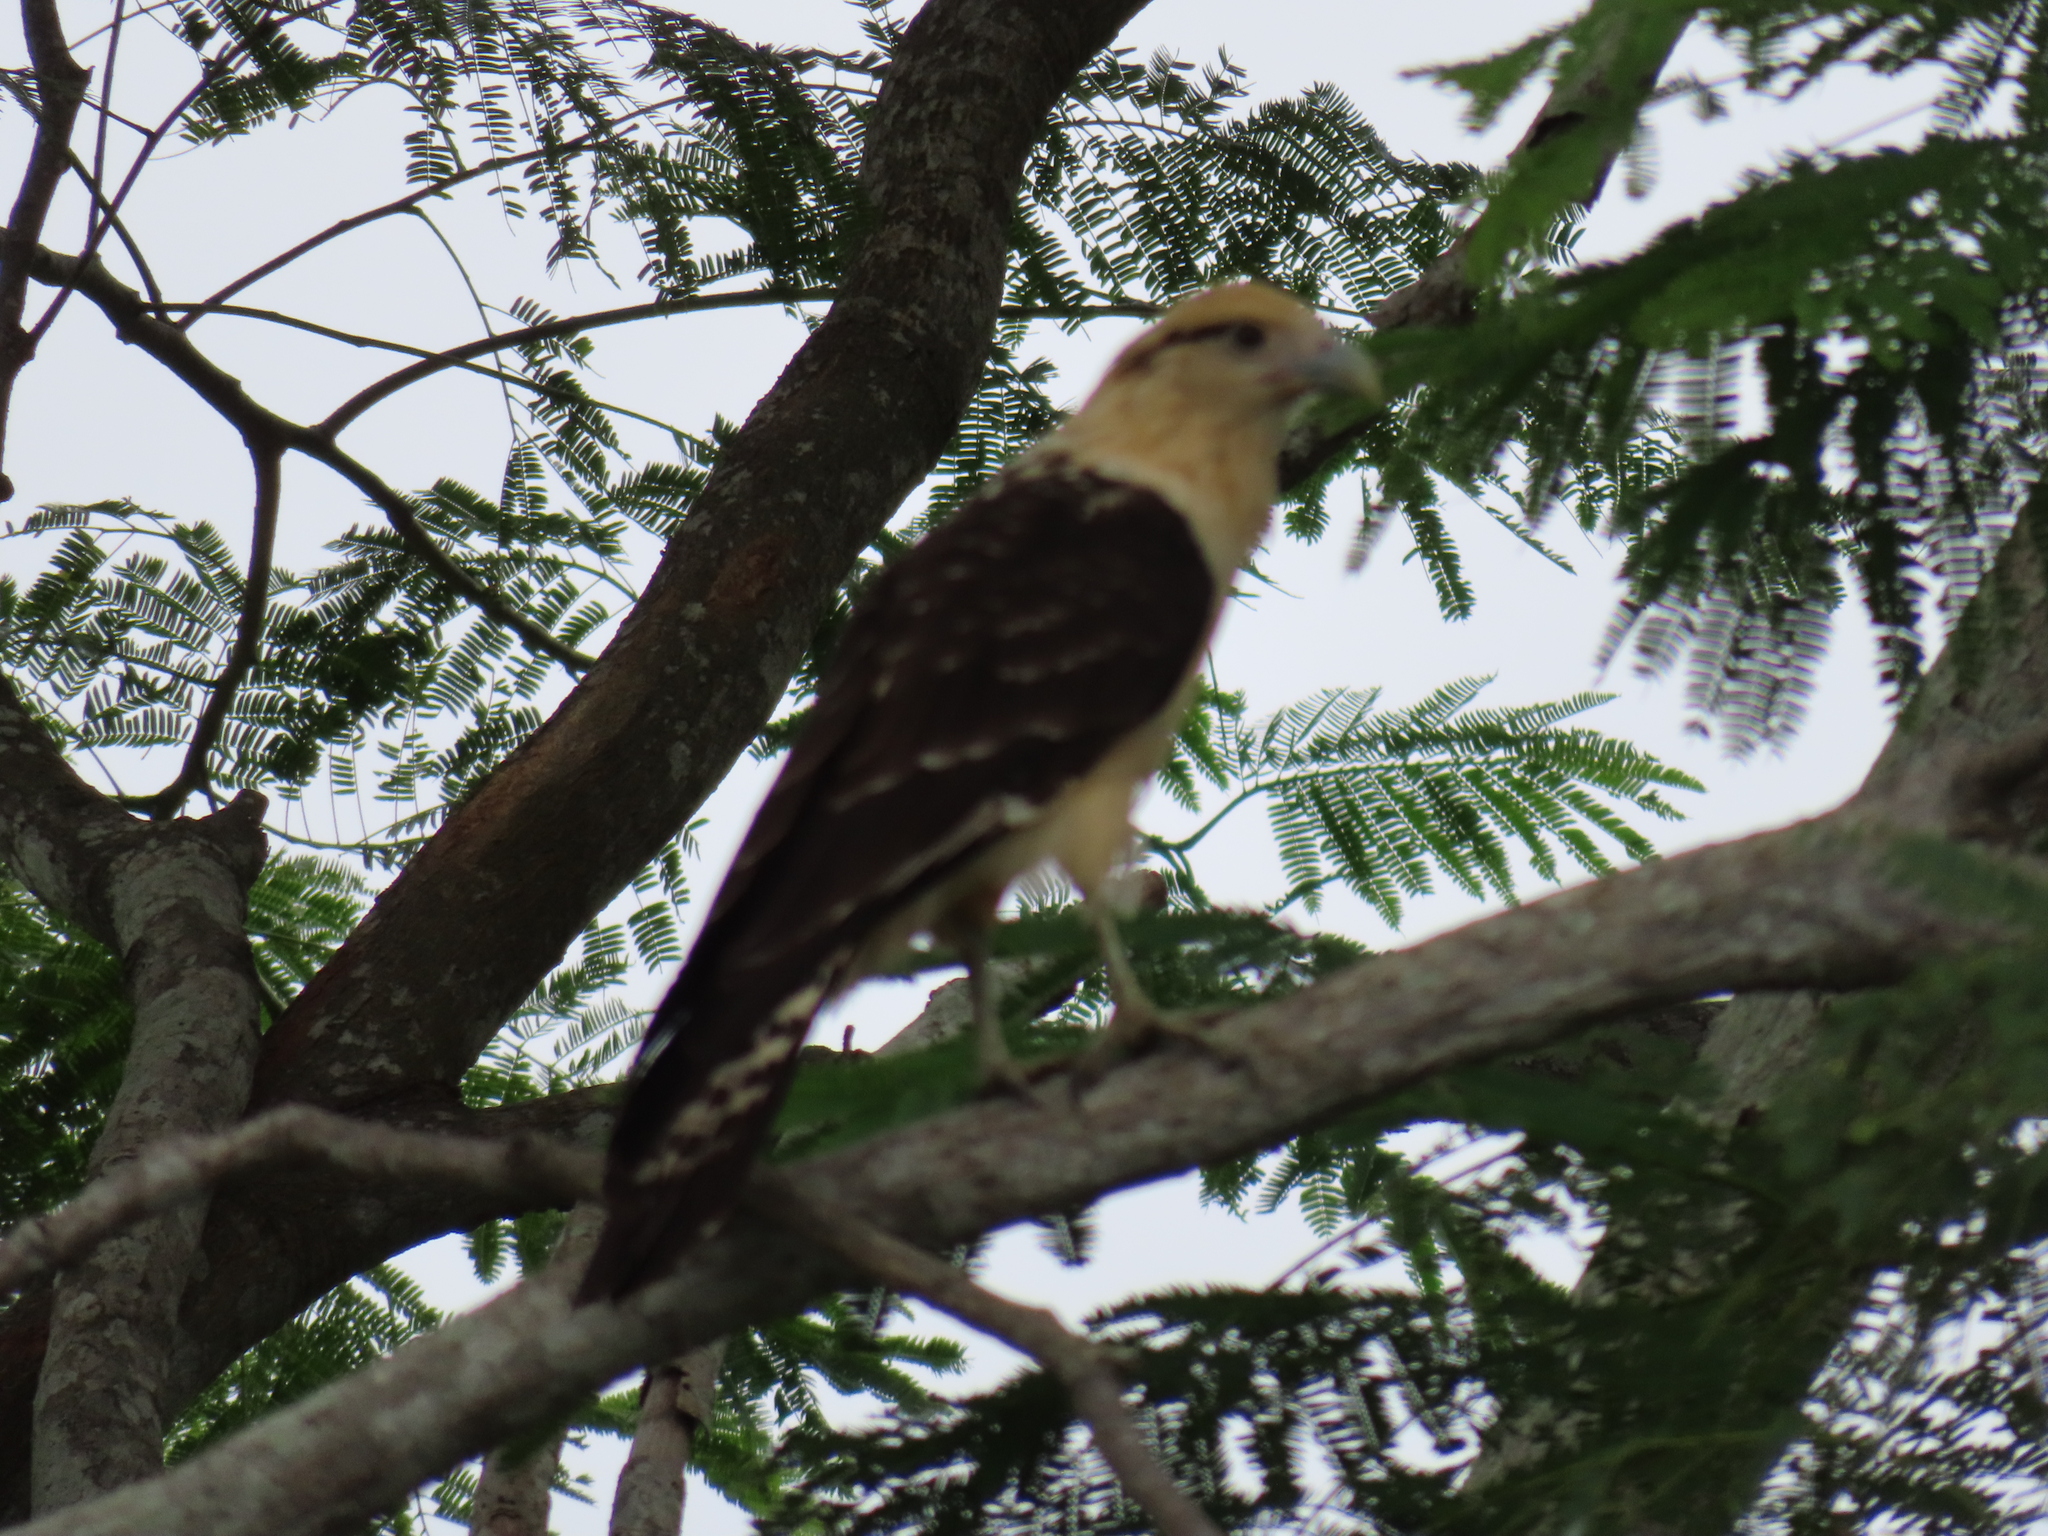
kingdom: Animalia
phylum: Chordata
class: Aves
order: Falconiformes
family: Falconidae
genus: Daptrius
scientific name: Daptrius
